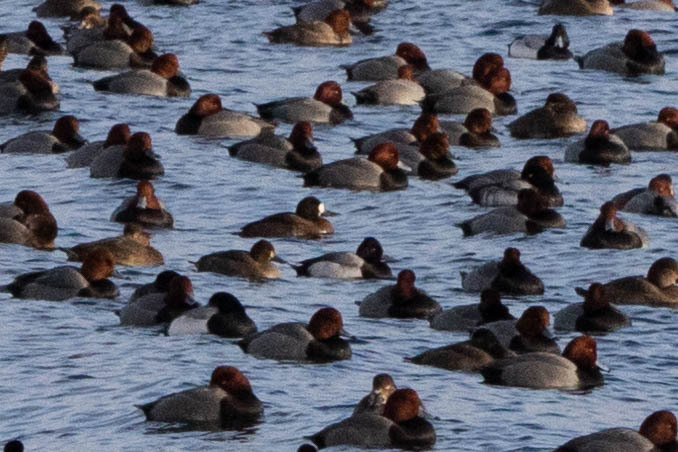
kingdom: Animalia
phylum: Chordata
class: Aves
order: Anseriformes
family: Anatidae
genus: Aythya
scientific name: Aythya affinis
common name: Lesser scaup
